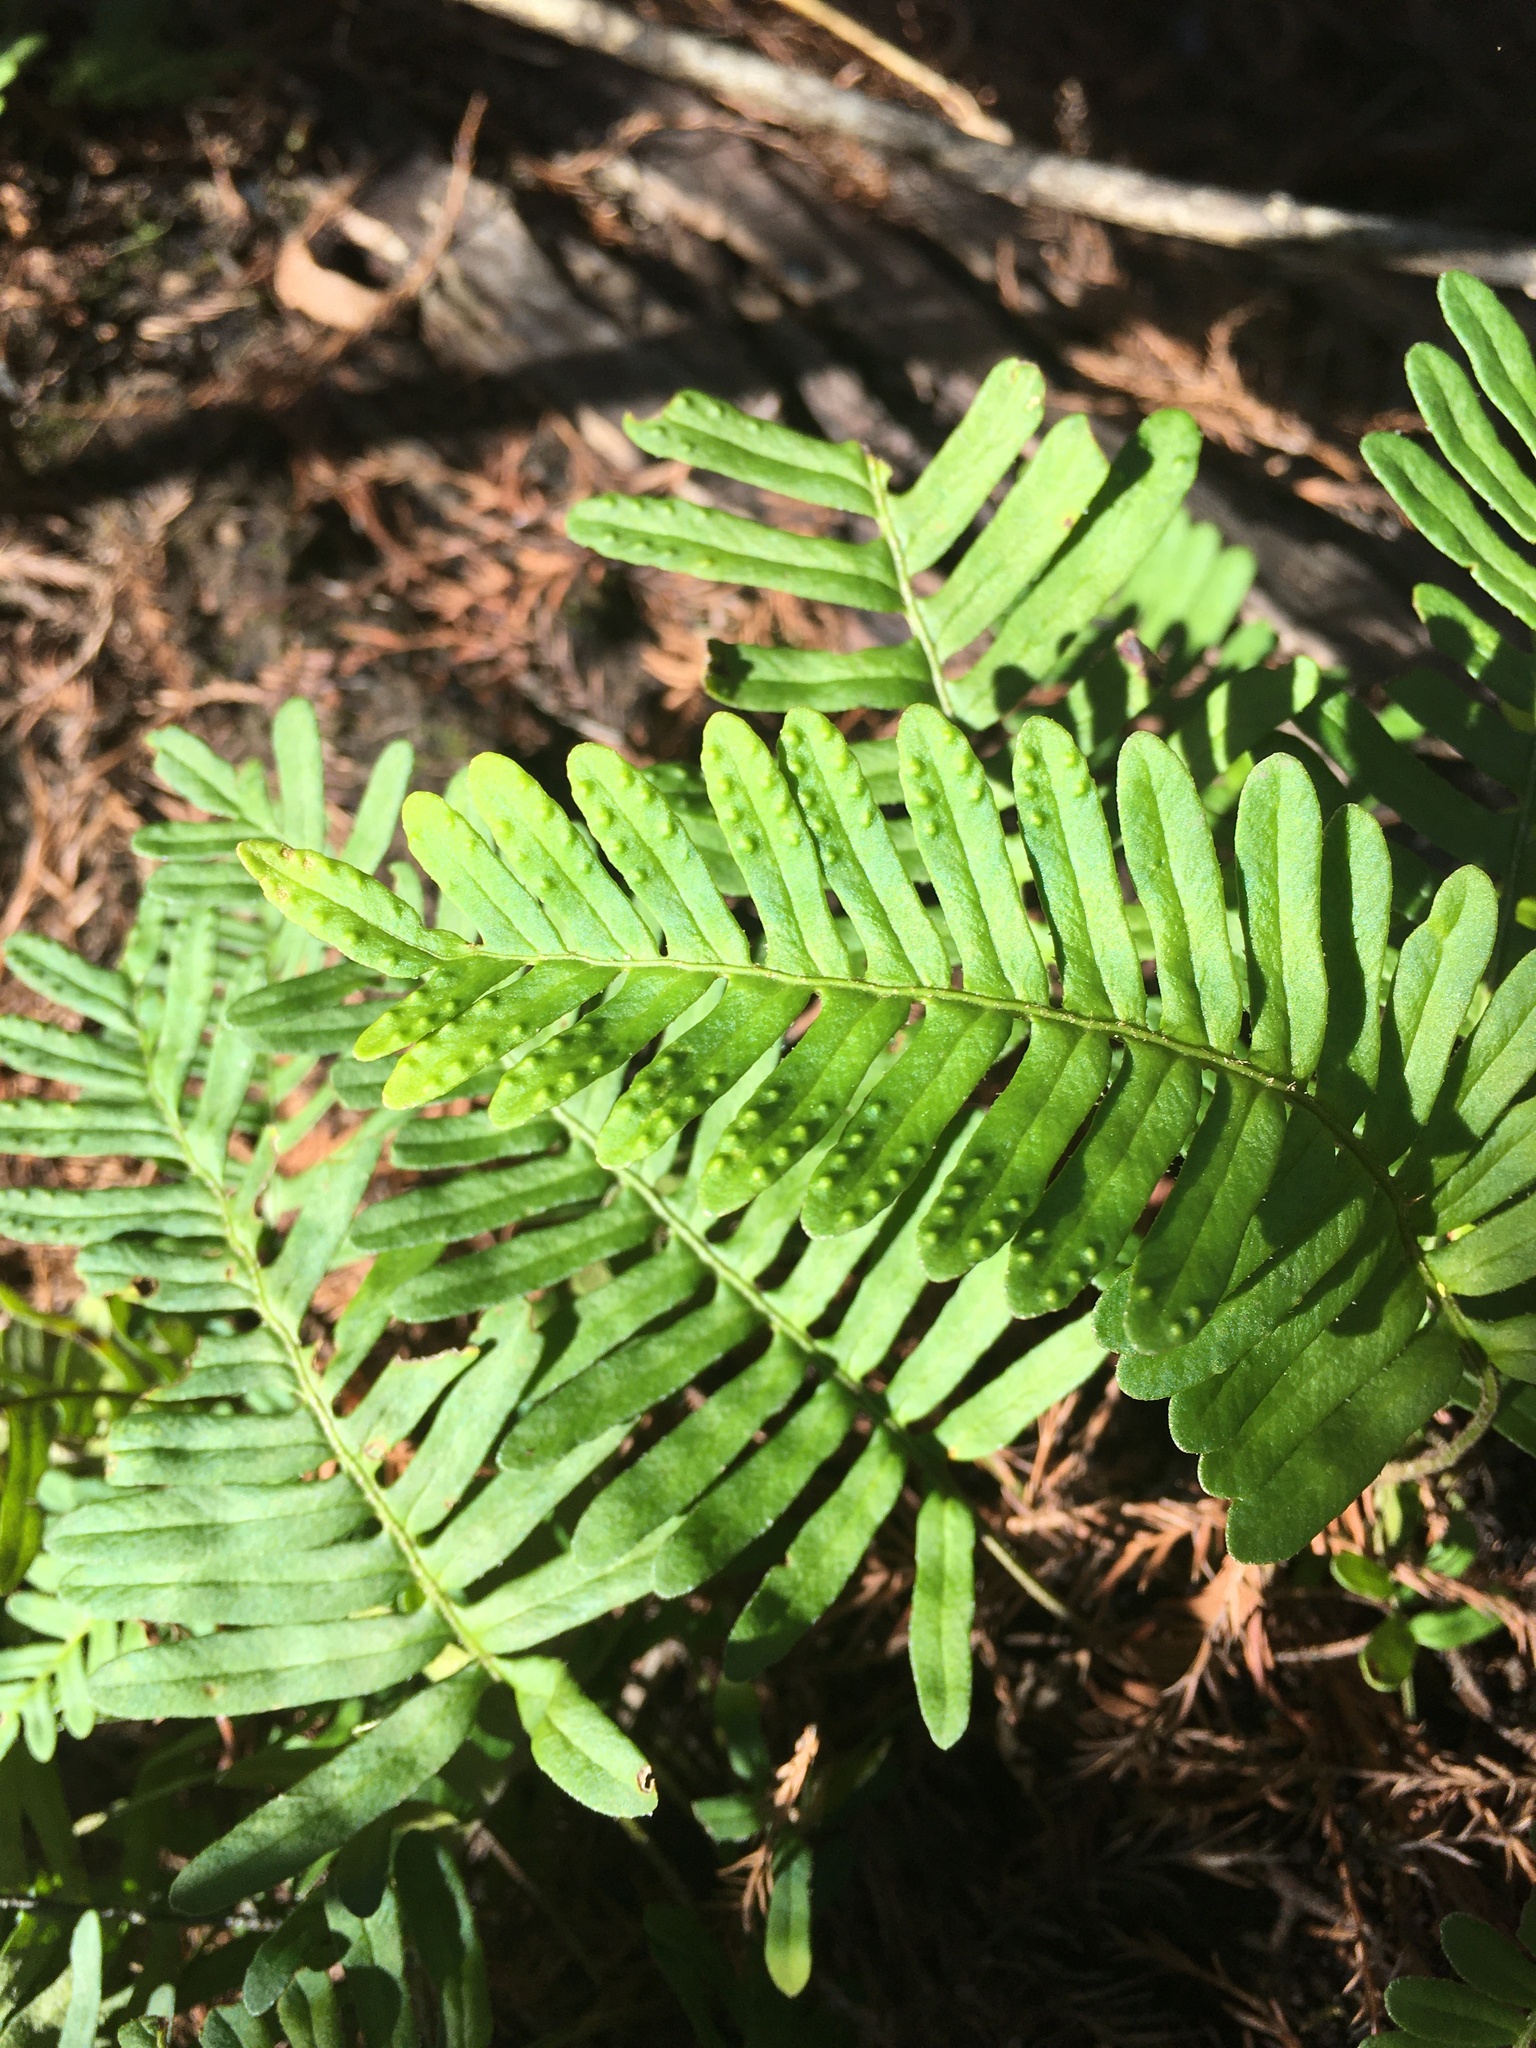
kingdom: Plantae
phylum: Tracheophyta
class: Polypodiopsida
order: Polypodiales
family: Polypodiaceae
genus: Pleopeltis
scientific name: Pleopeltis michauxiana
